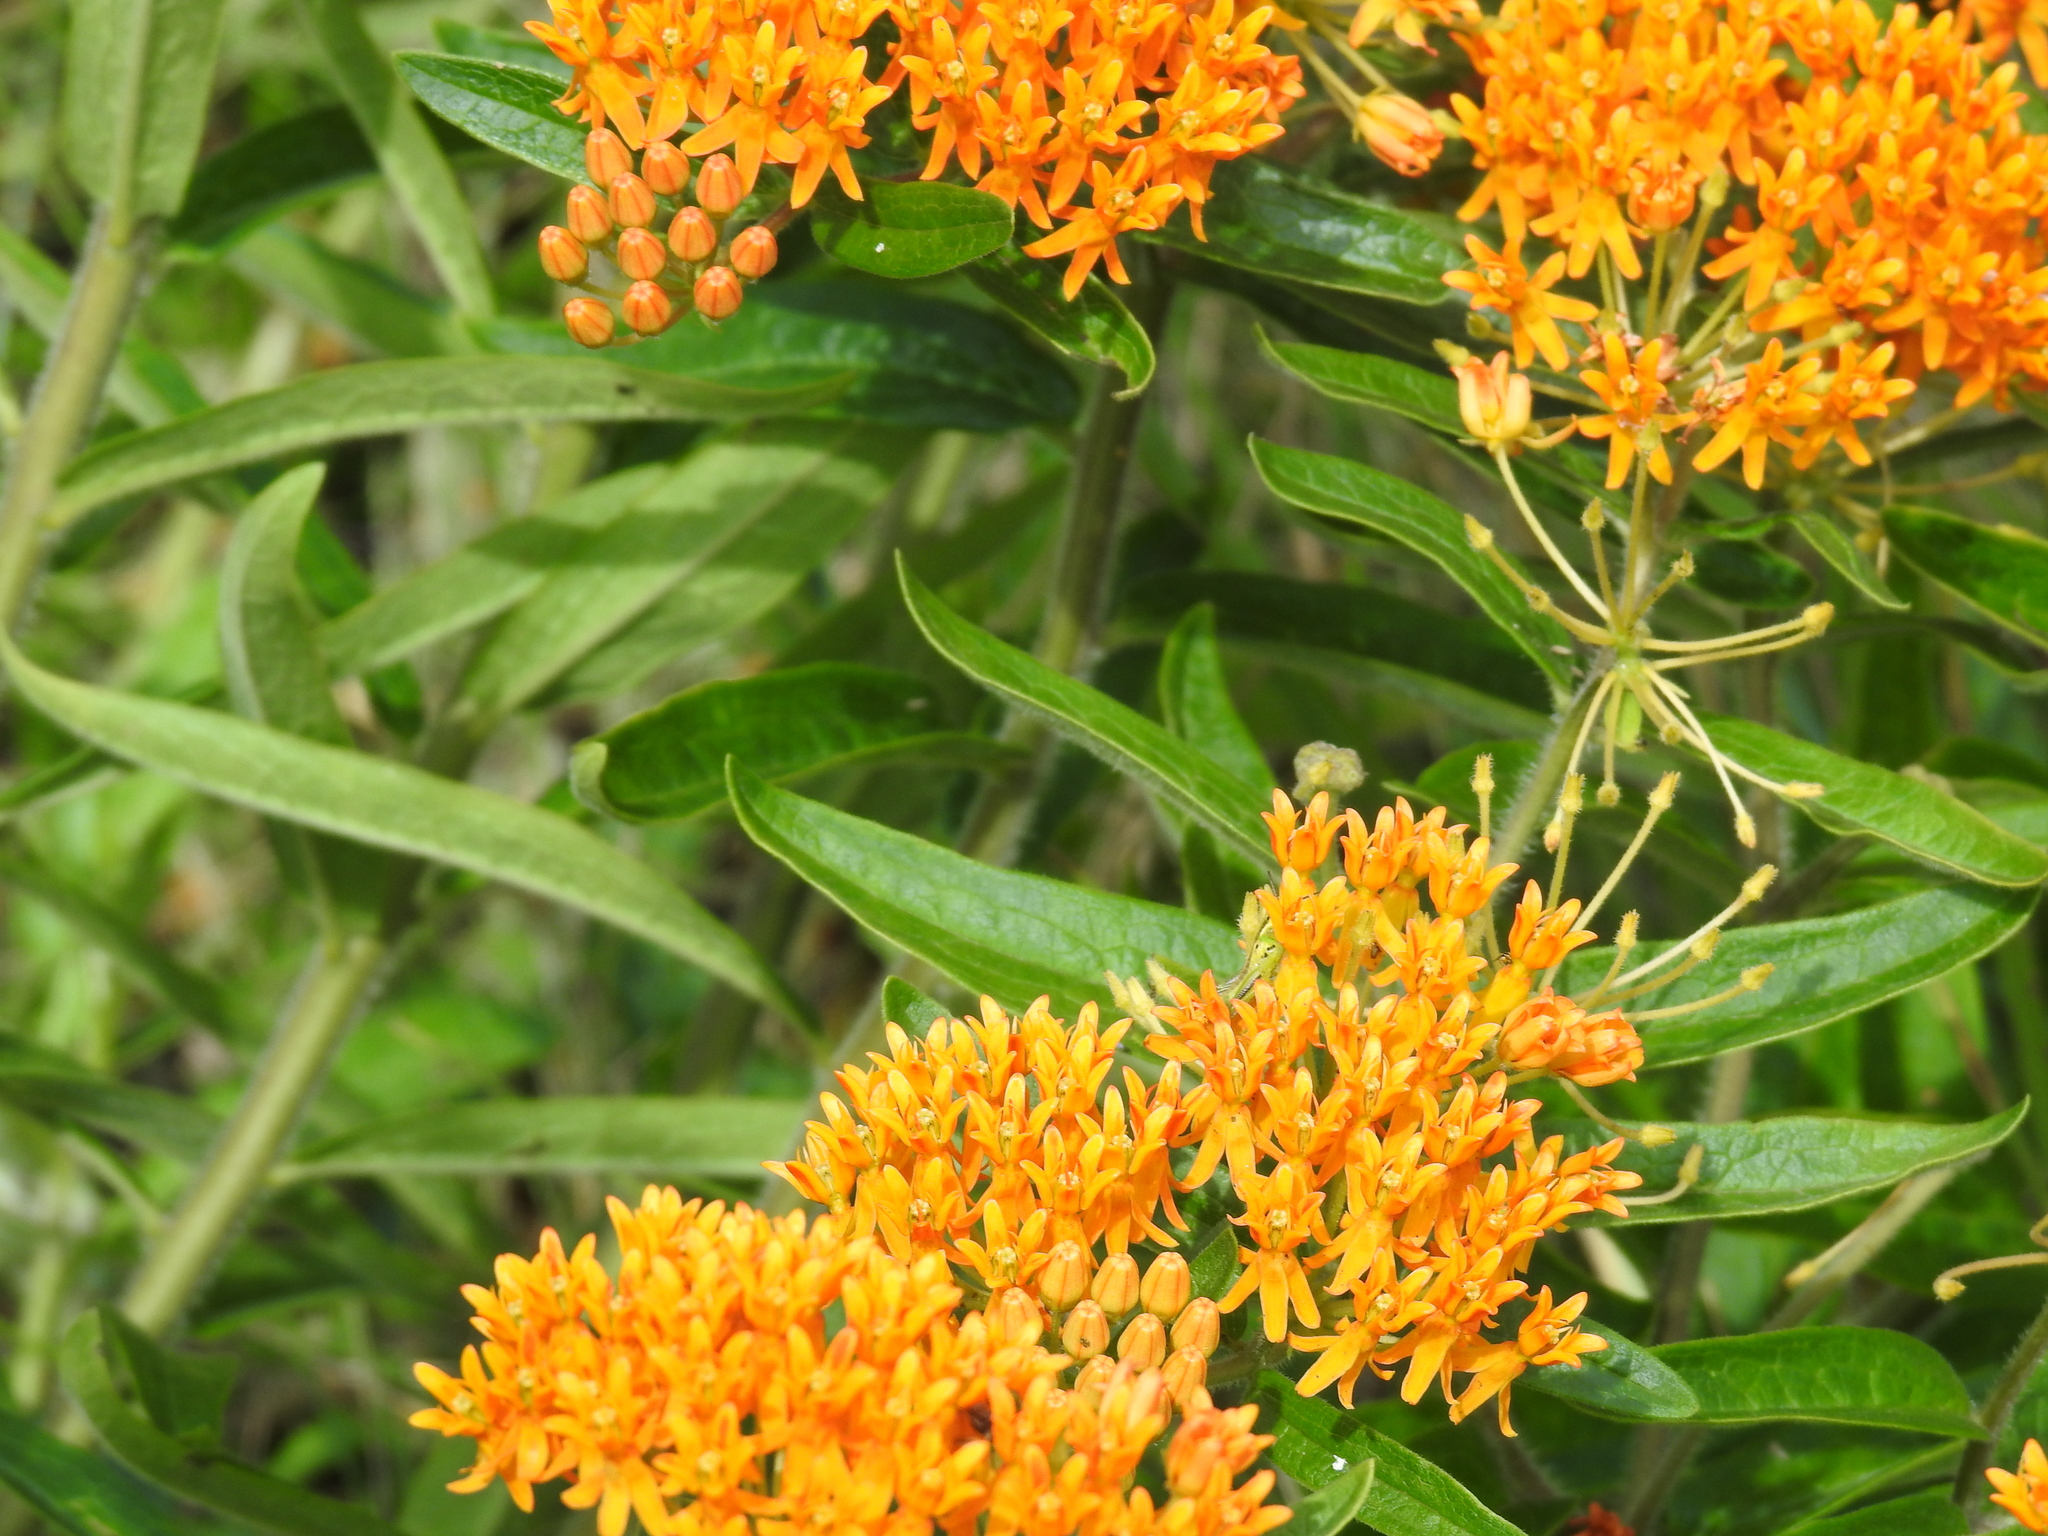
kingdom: Plantae
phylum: Tracheophyta
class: Magnoliopsida
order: Gentianales
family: Apocynaceae
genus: Asclepias
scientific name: Asclepias tuberosa
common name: Butterfly milkweed
